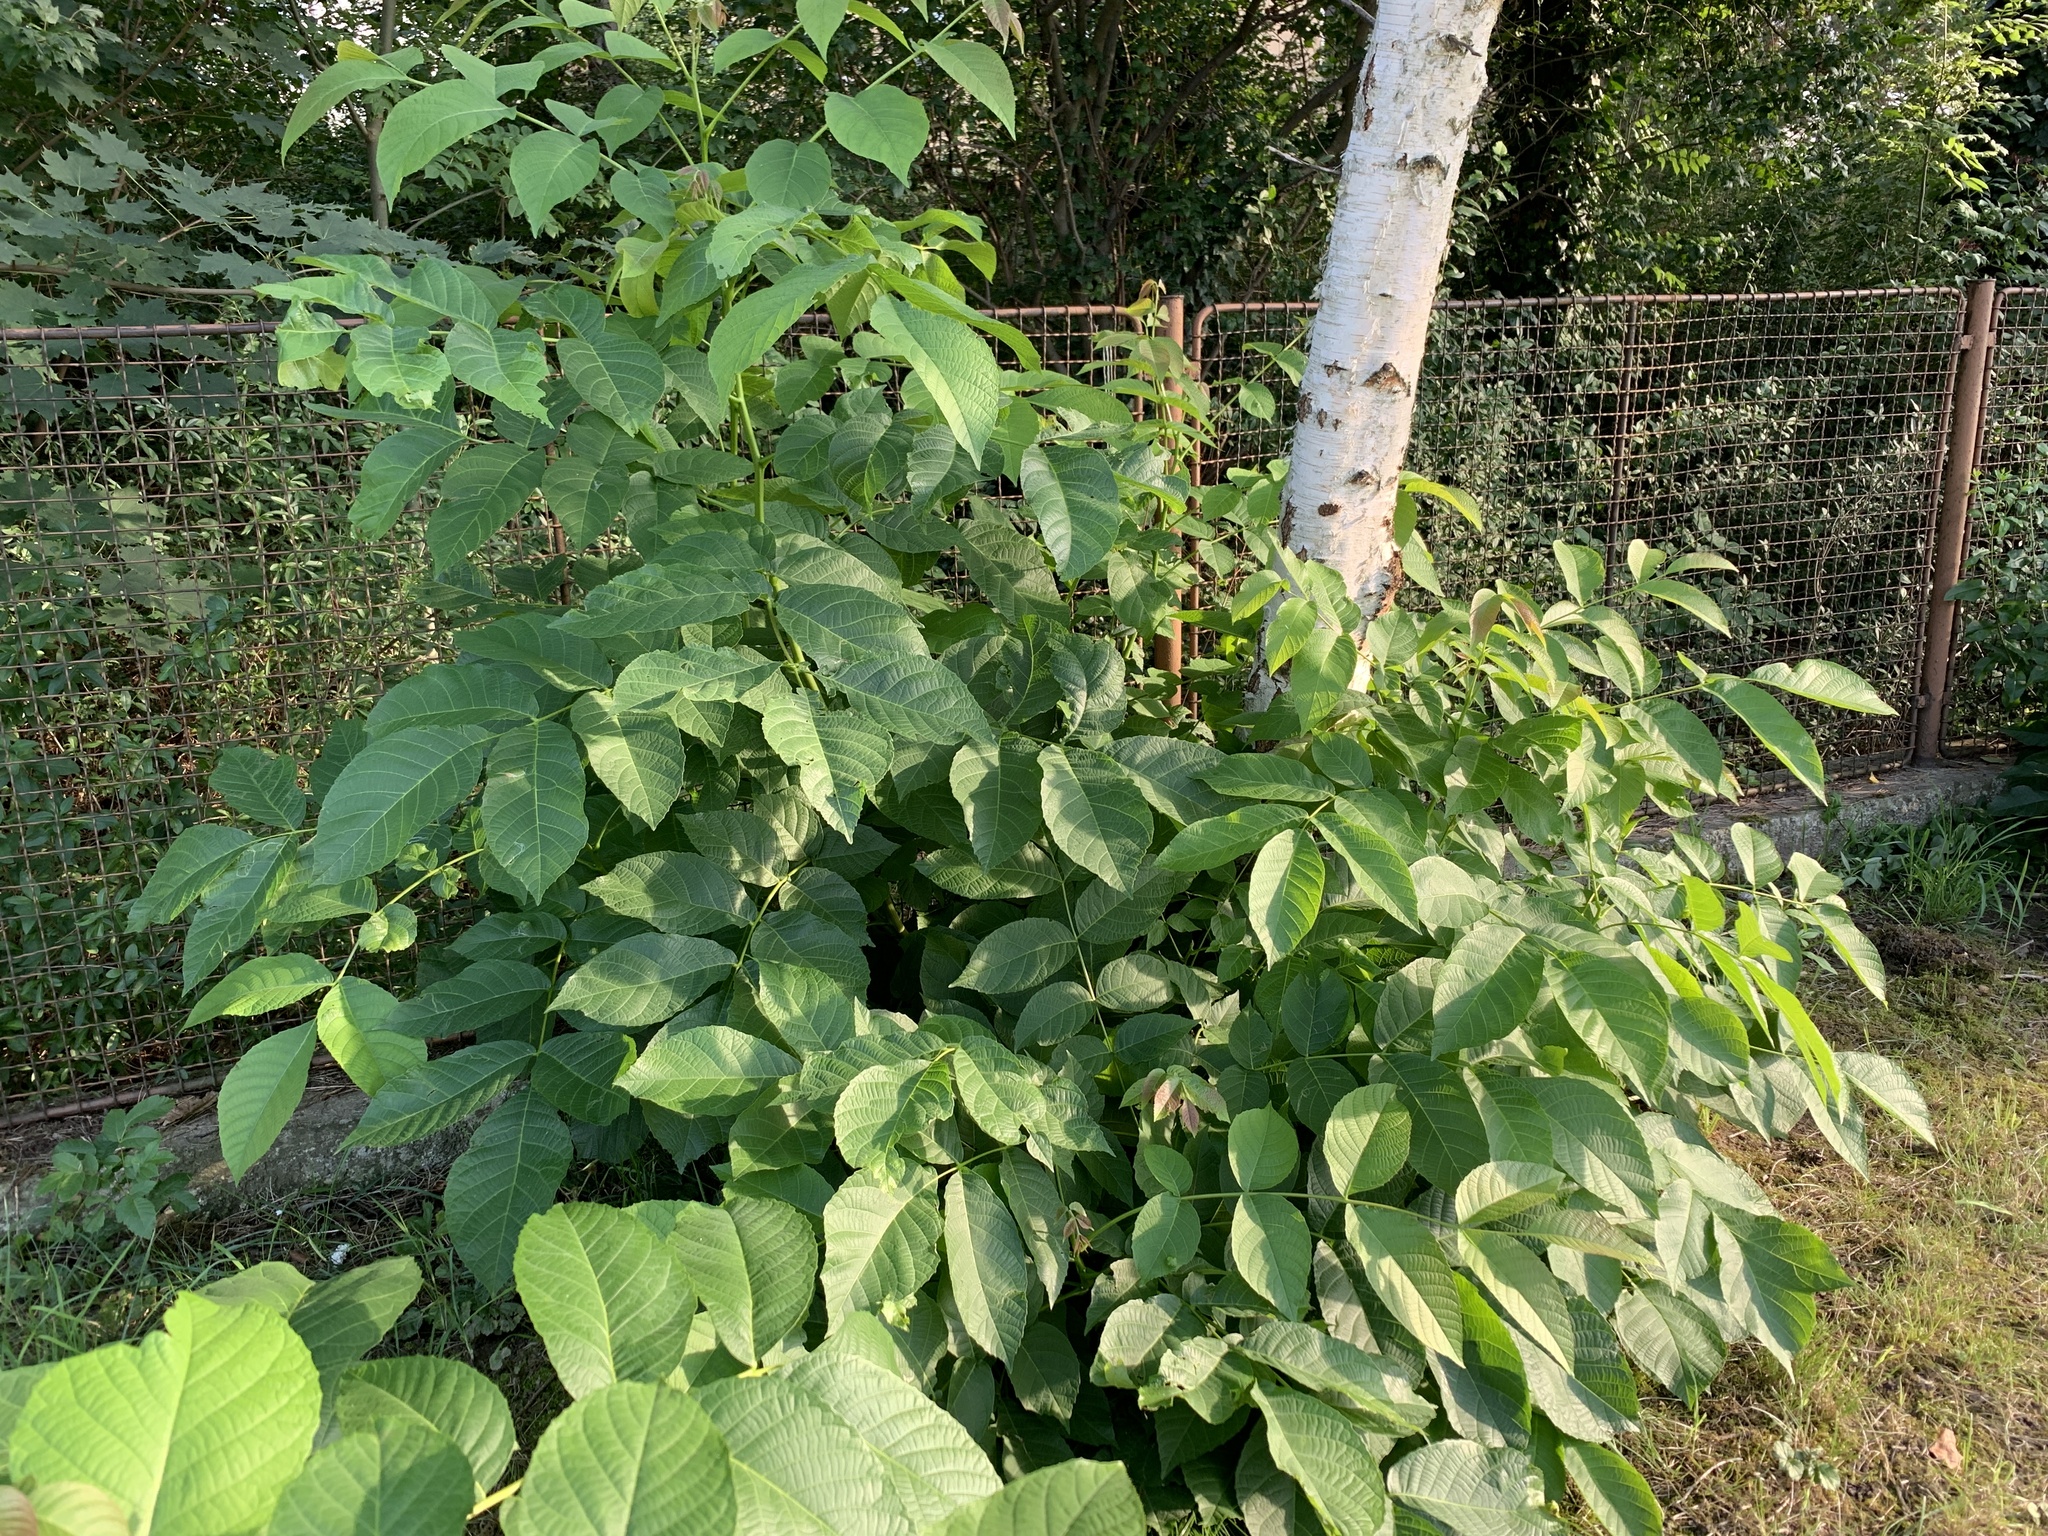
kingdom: Plantae
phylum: Tracheophyta
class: Magnoliopsida
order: Fagales
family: Juglandaceae
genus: Juglans
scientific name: Juglans regia
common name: Walnut
